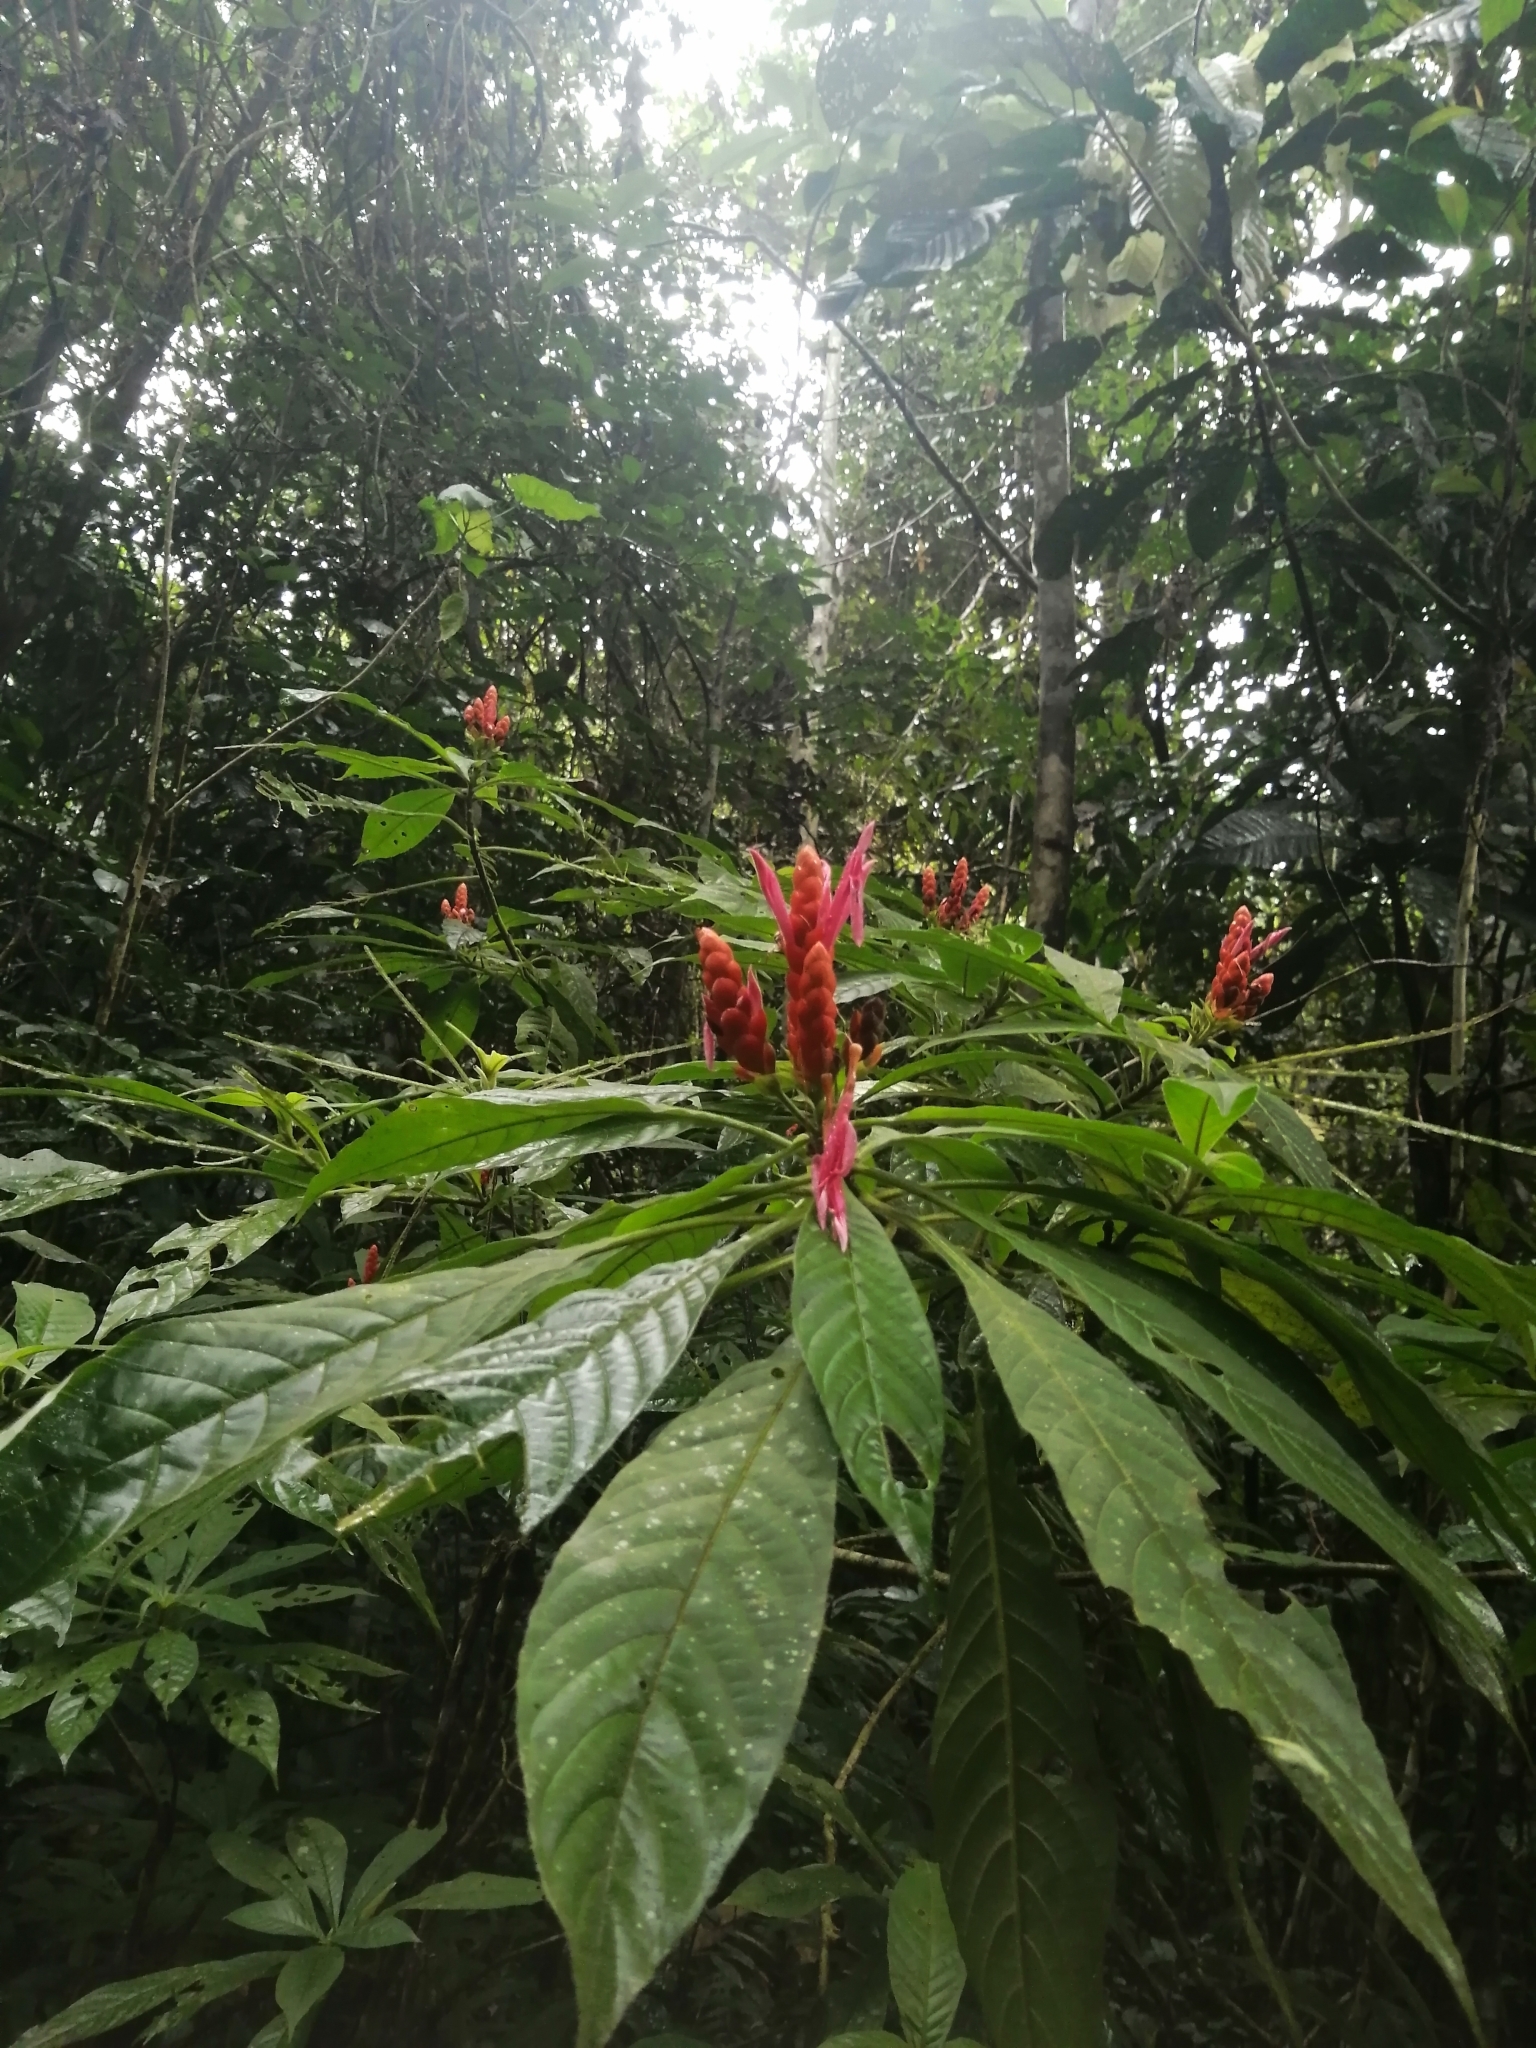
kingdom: Plantae
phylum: Tracheophyta
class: Magnoliopsida
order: Lamiales
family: Acanthaceae
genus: Aphelandra
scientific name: Aphelandra sinclairiana
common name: Coral aphelandra
